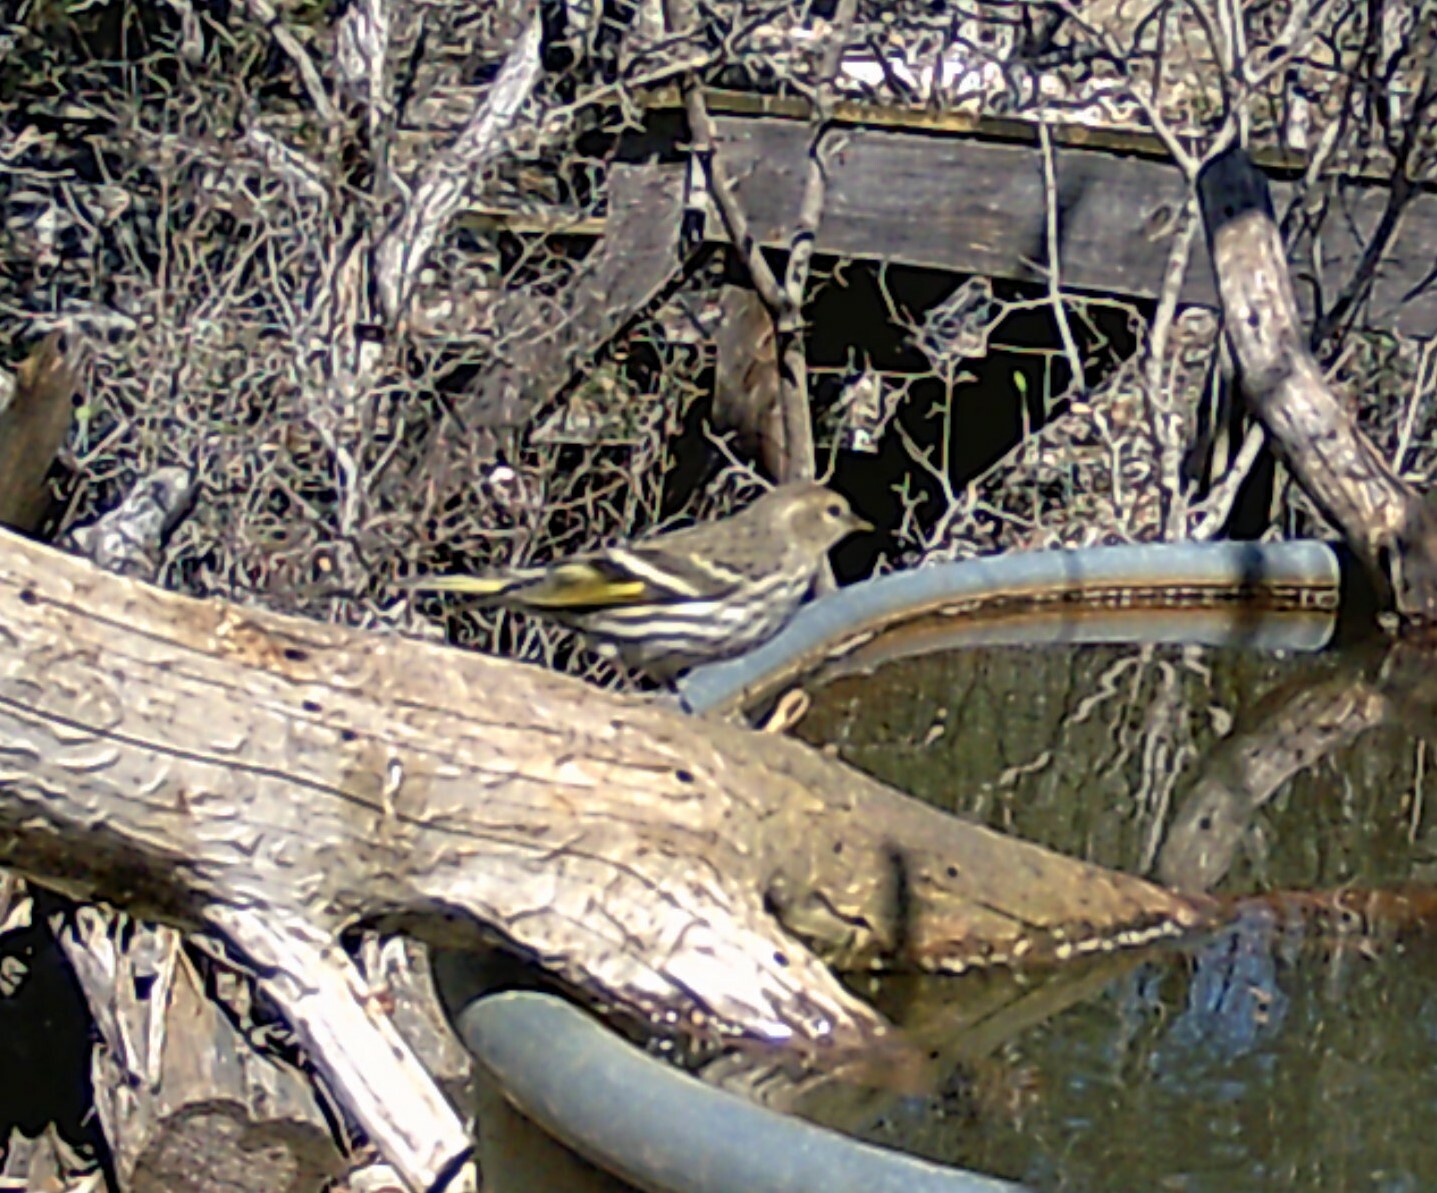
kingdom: Animalia
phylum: Chordata
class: Aves
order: Passeriformes
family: Fringillidae
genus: Spinus
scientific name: Spinus pinus
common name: Pine siskin
